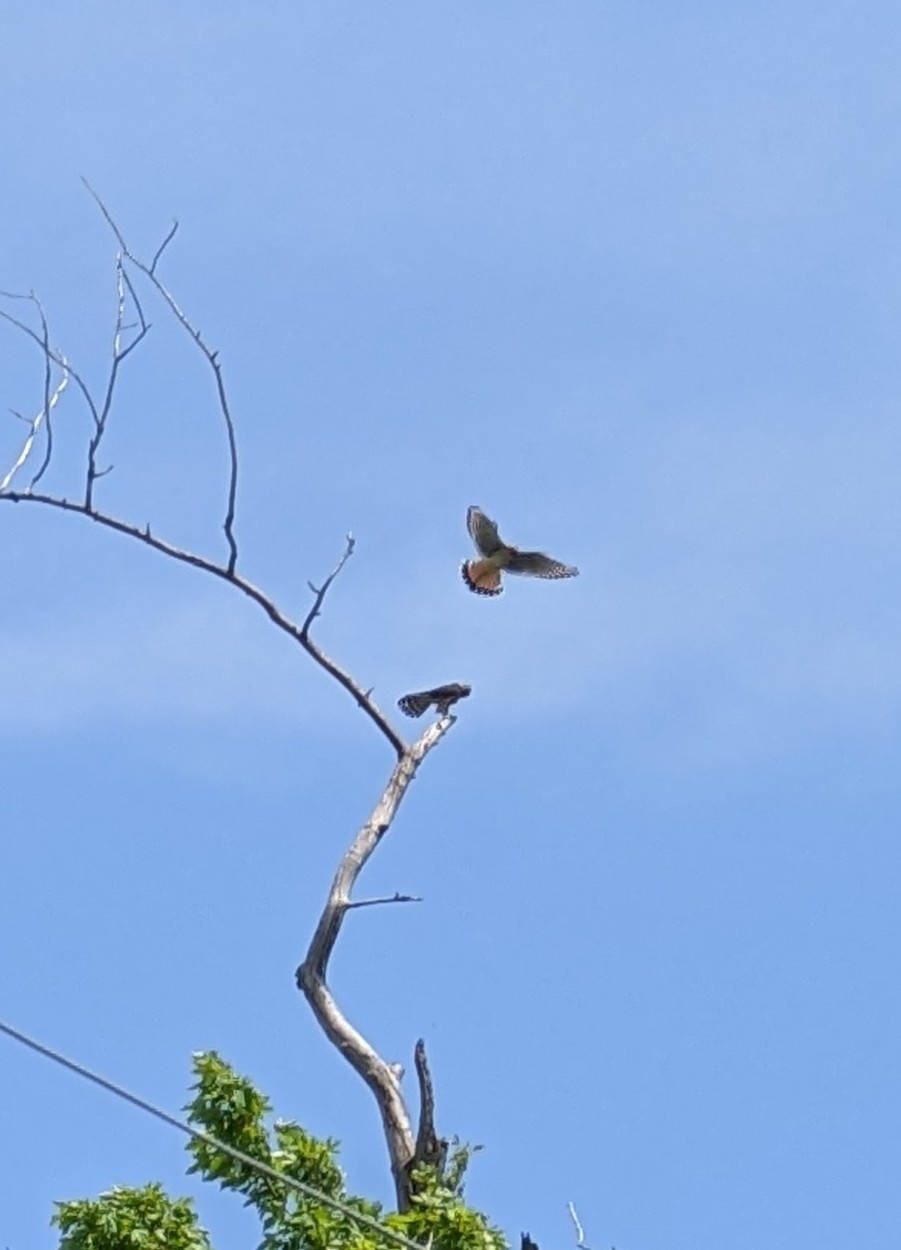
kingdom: Animalia
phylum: Chordata
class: Aves
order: Falconiformes
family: Falconidae
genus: Falco
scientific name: Falco sparverius
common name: American kestrel
